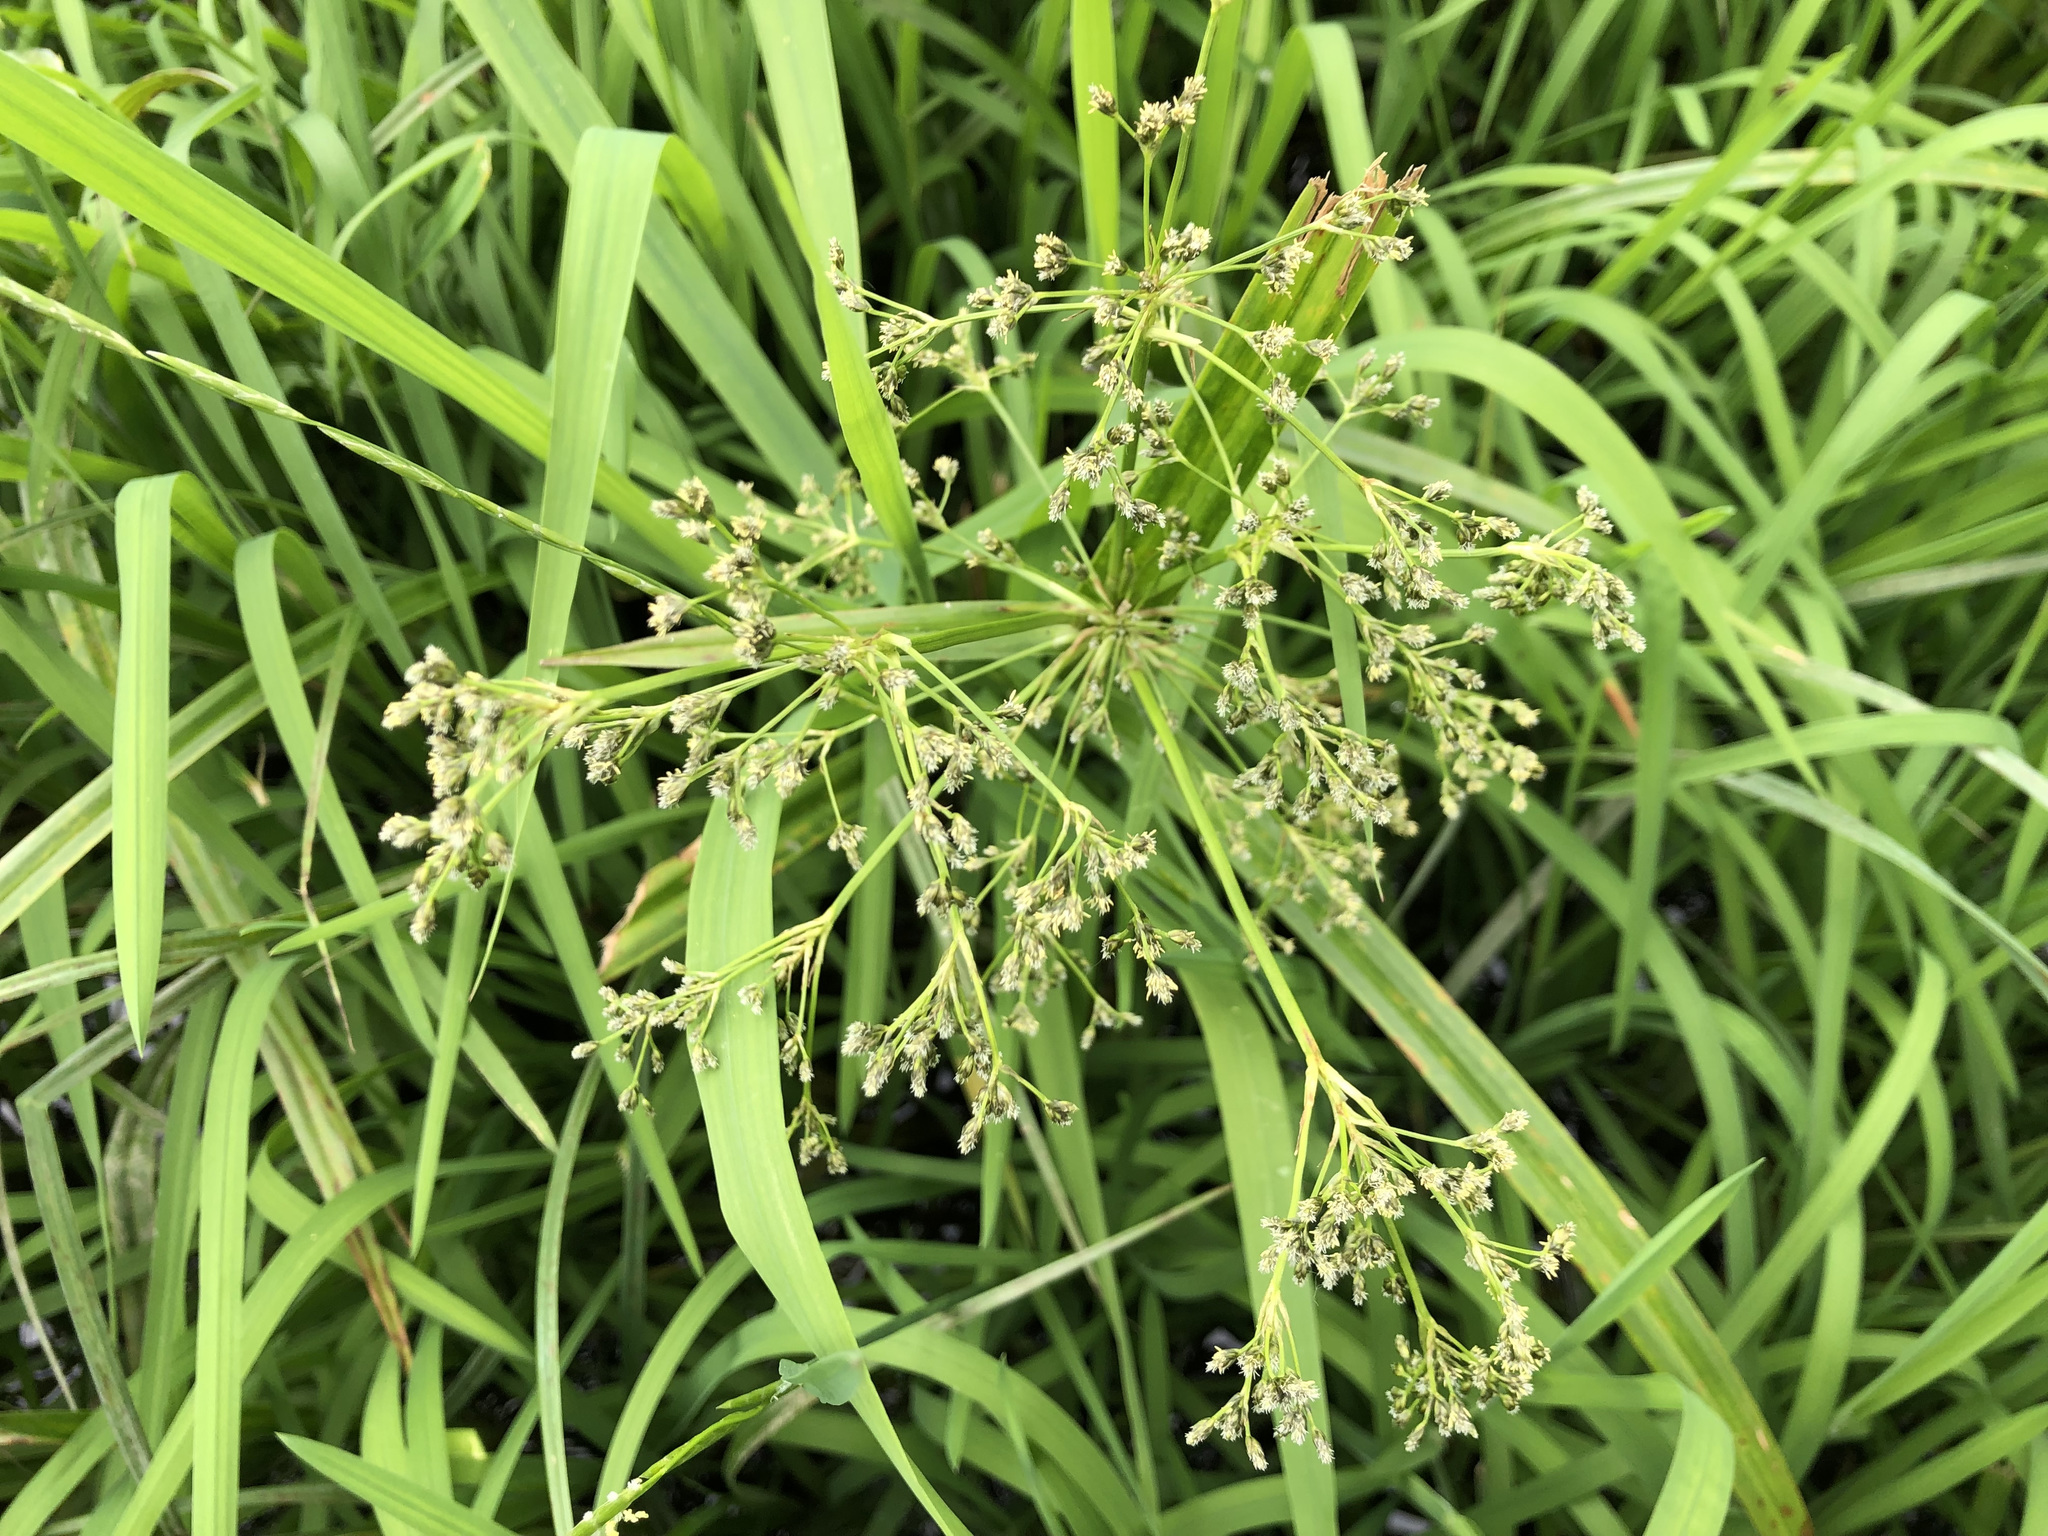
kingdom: Plantae
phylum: Tracheophyta
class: Liliopsida
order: Poales
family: Cyperaceae
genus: Scirpus
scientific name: Scirpus sylvaticus
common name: Wood club-rush
